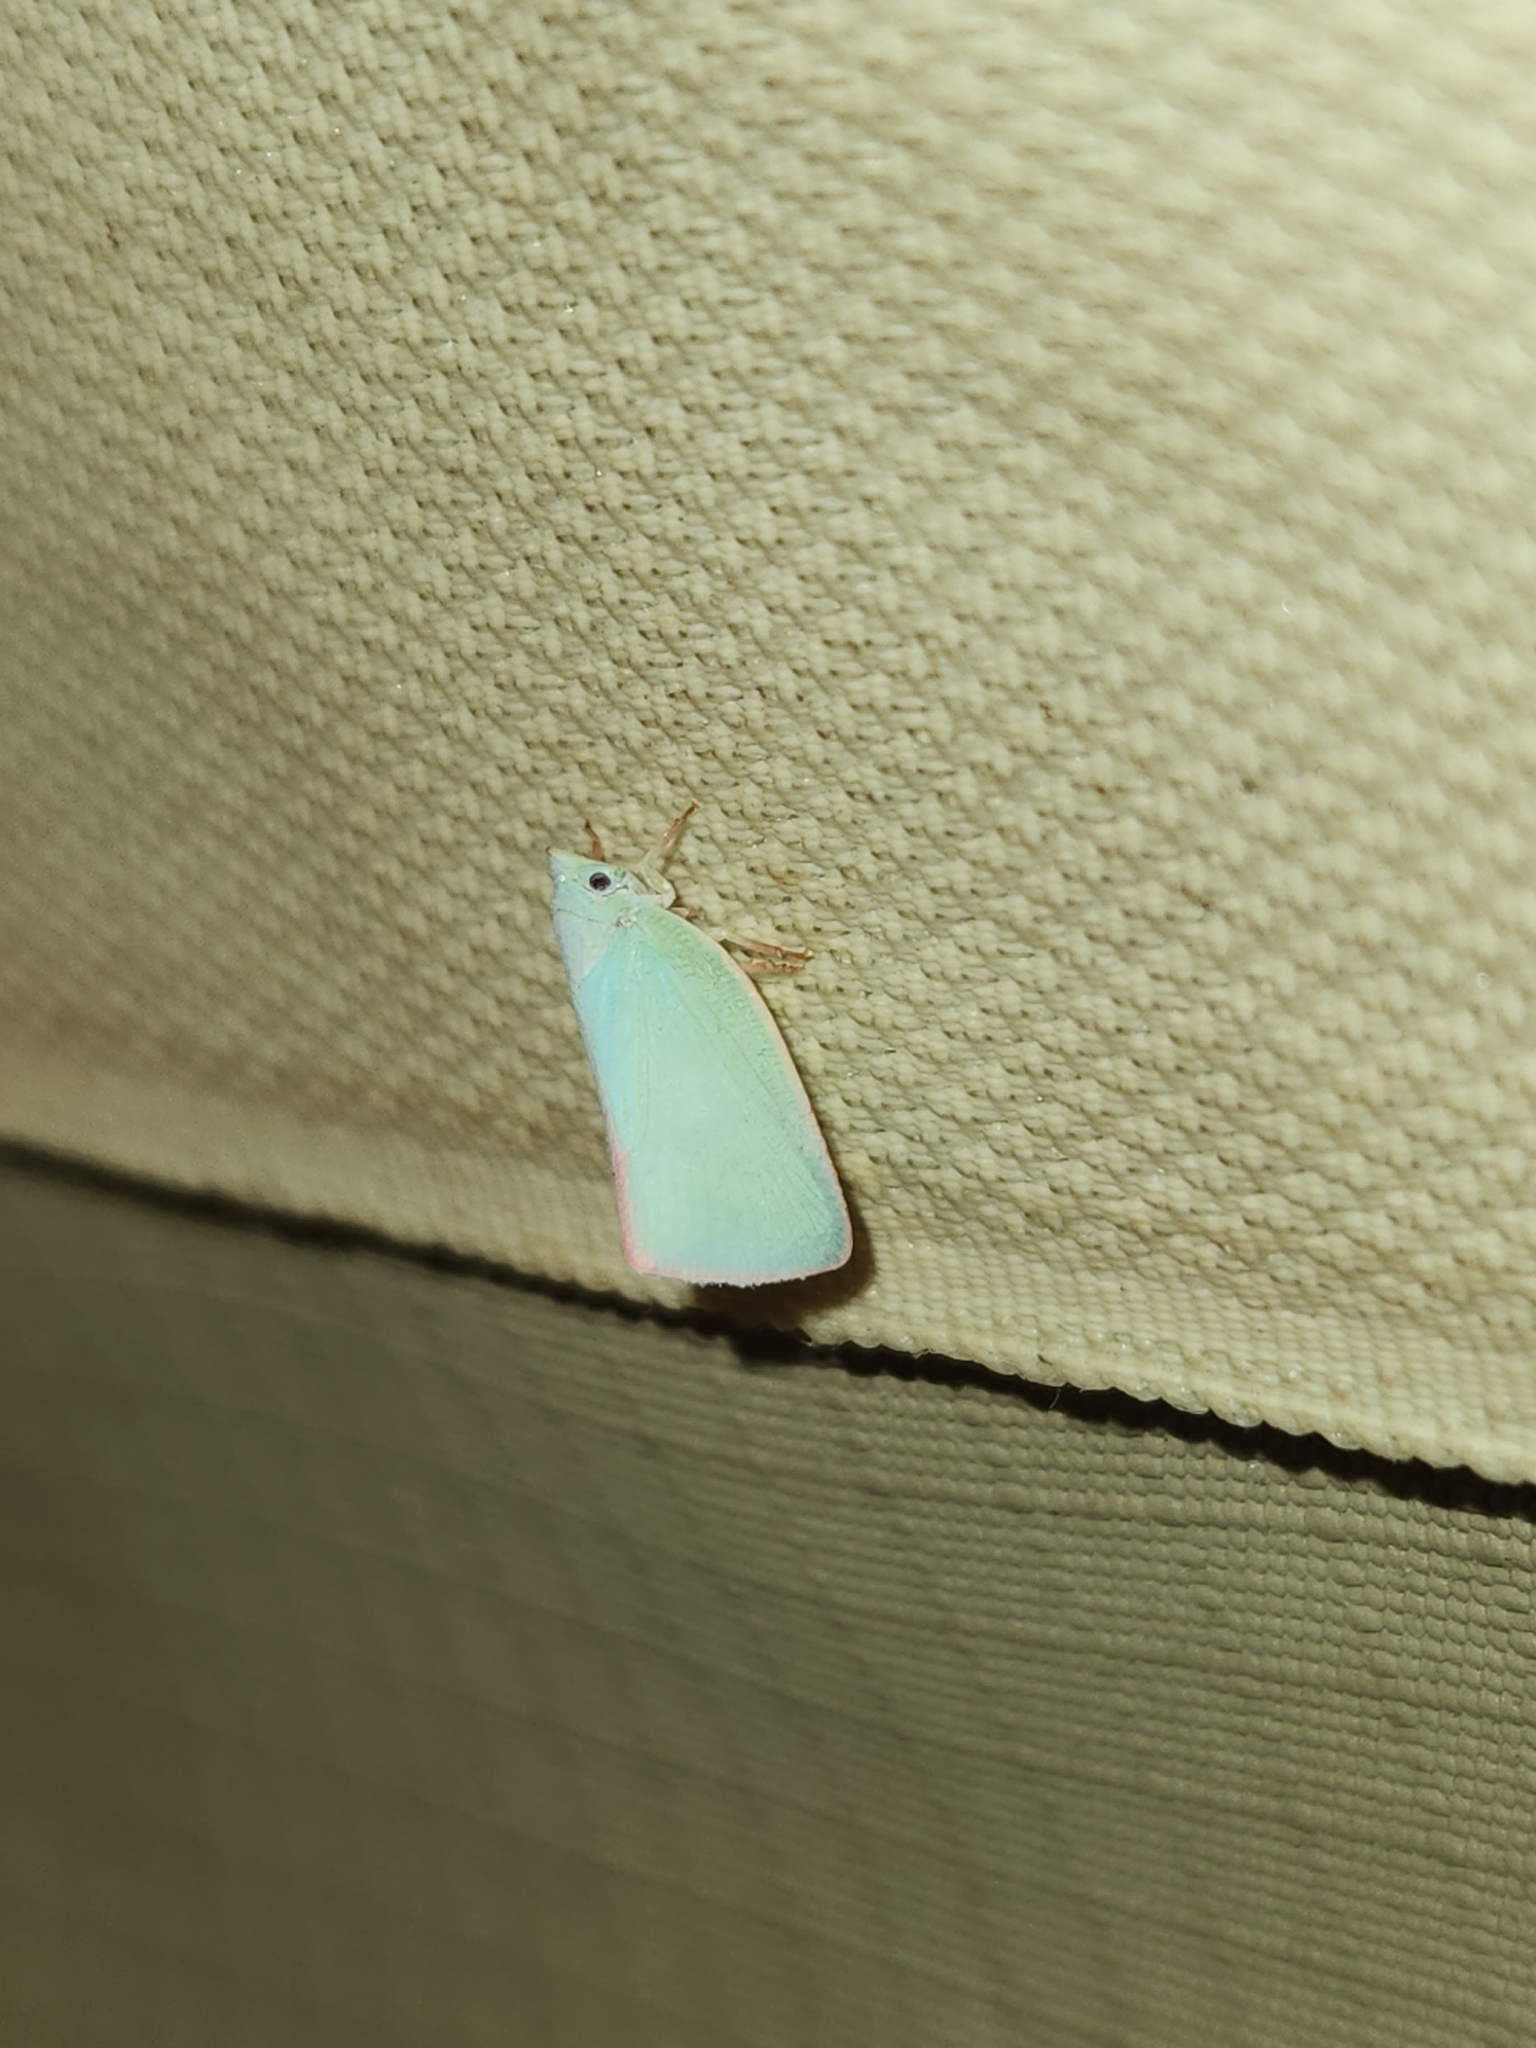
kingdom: Animalia
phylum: Arthropoda
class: Insecta
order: Hemiptera
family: Flatidae
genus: Colgar
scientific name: Colgar peracuta
